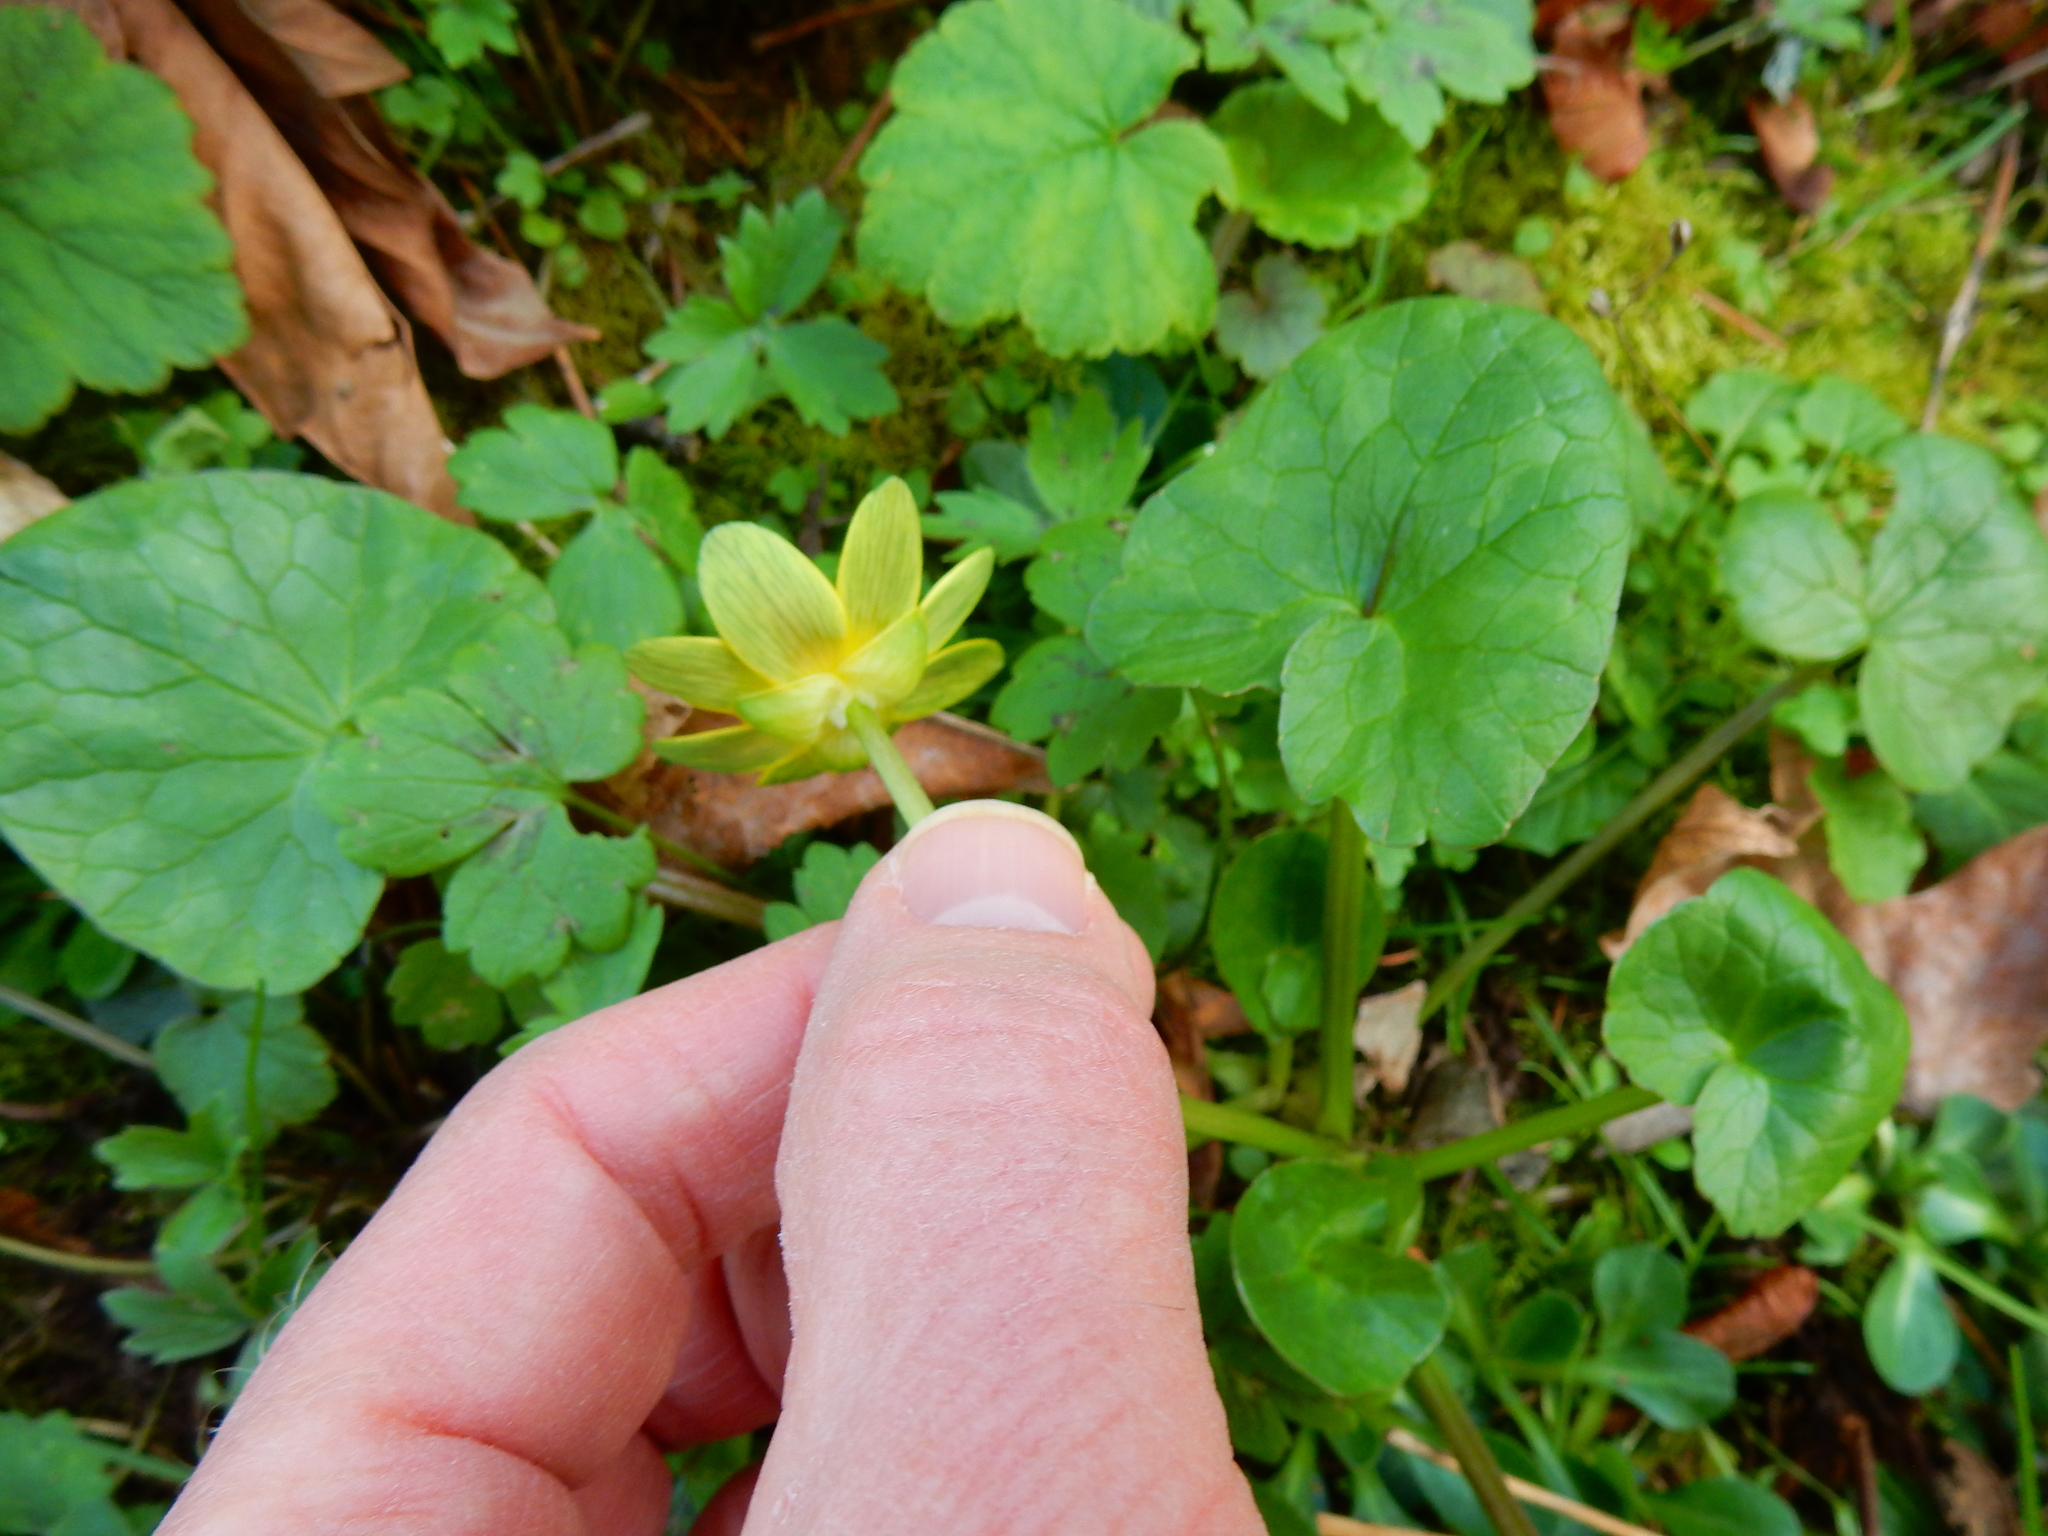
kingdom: Plantae
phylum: Tracheophyta
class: Magnoliopsida
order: Ranunculales
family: Ranunculaceae
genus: Ficaria
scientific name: Ficaria verna
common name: Lesser celandine
